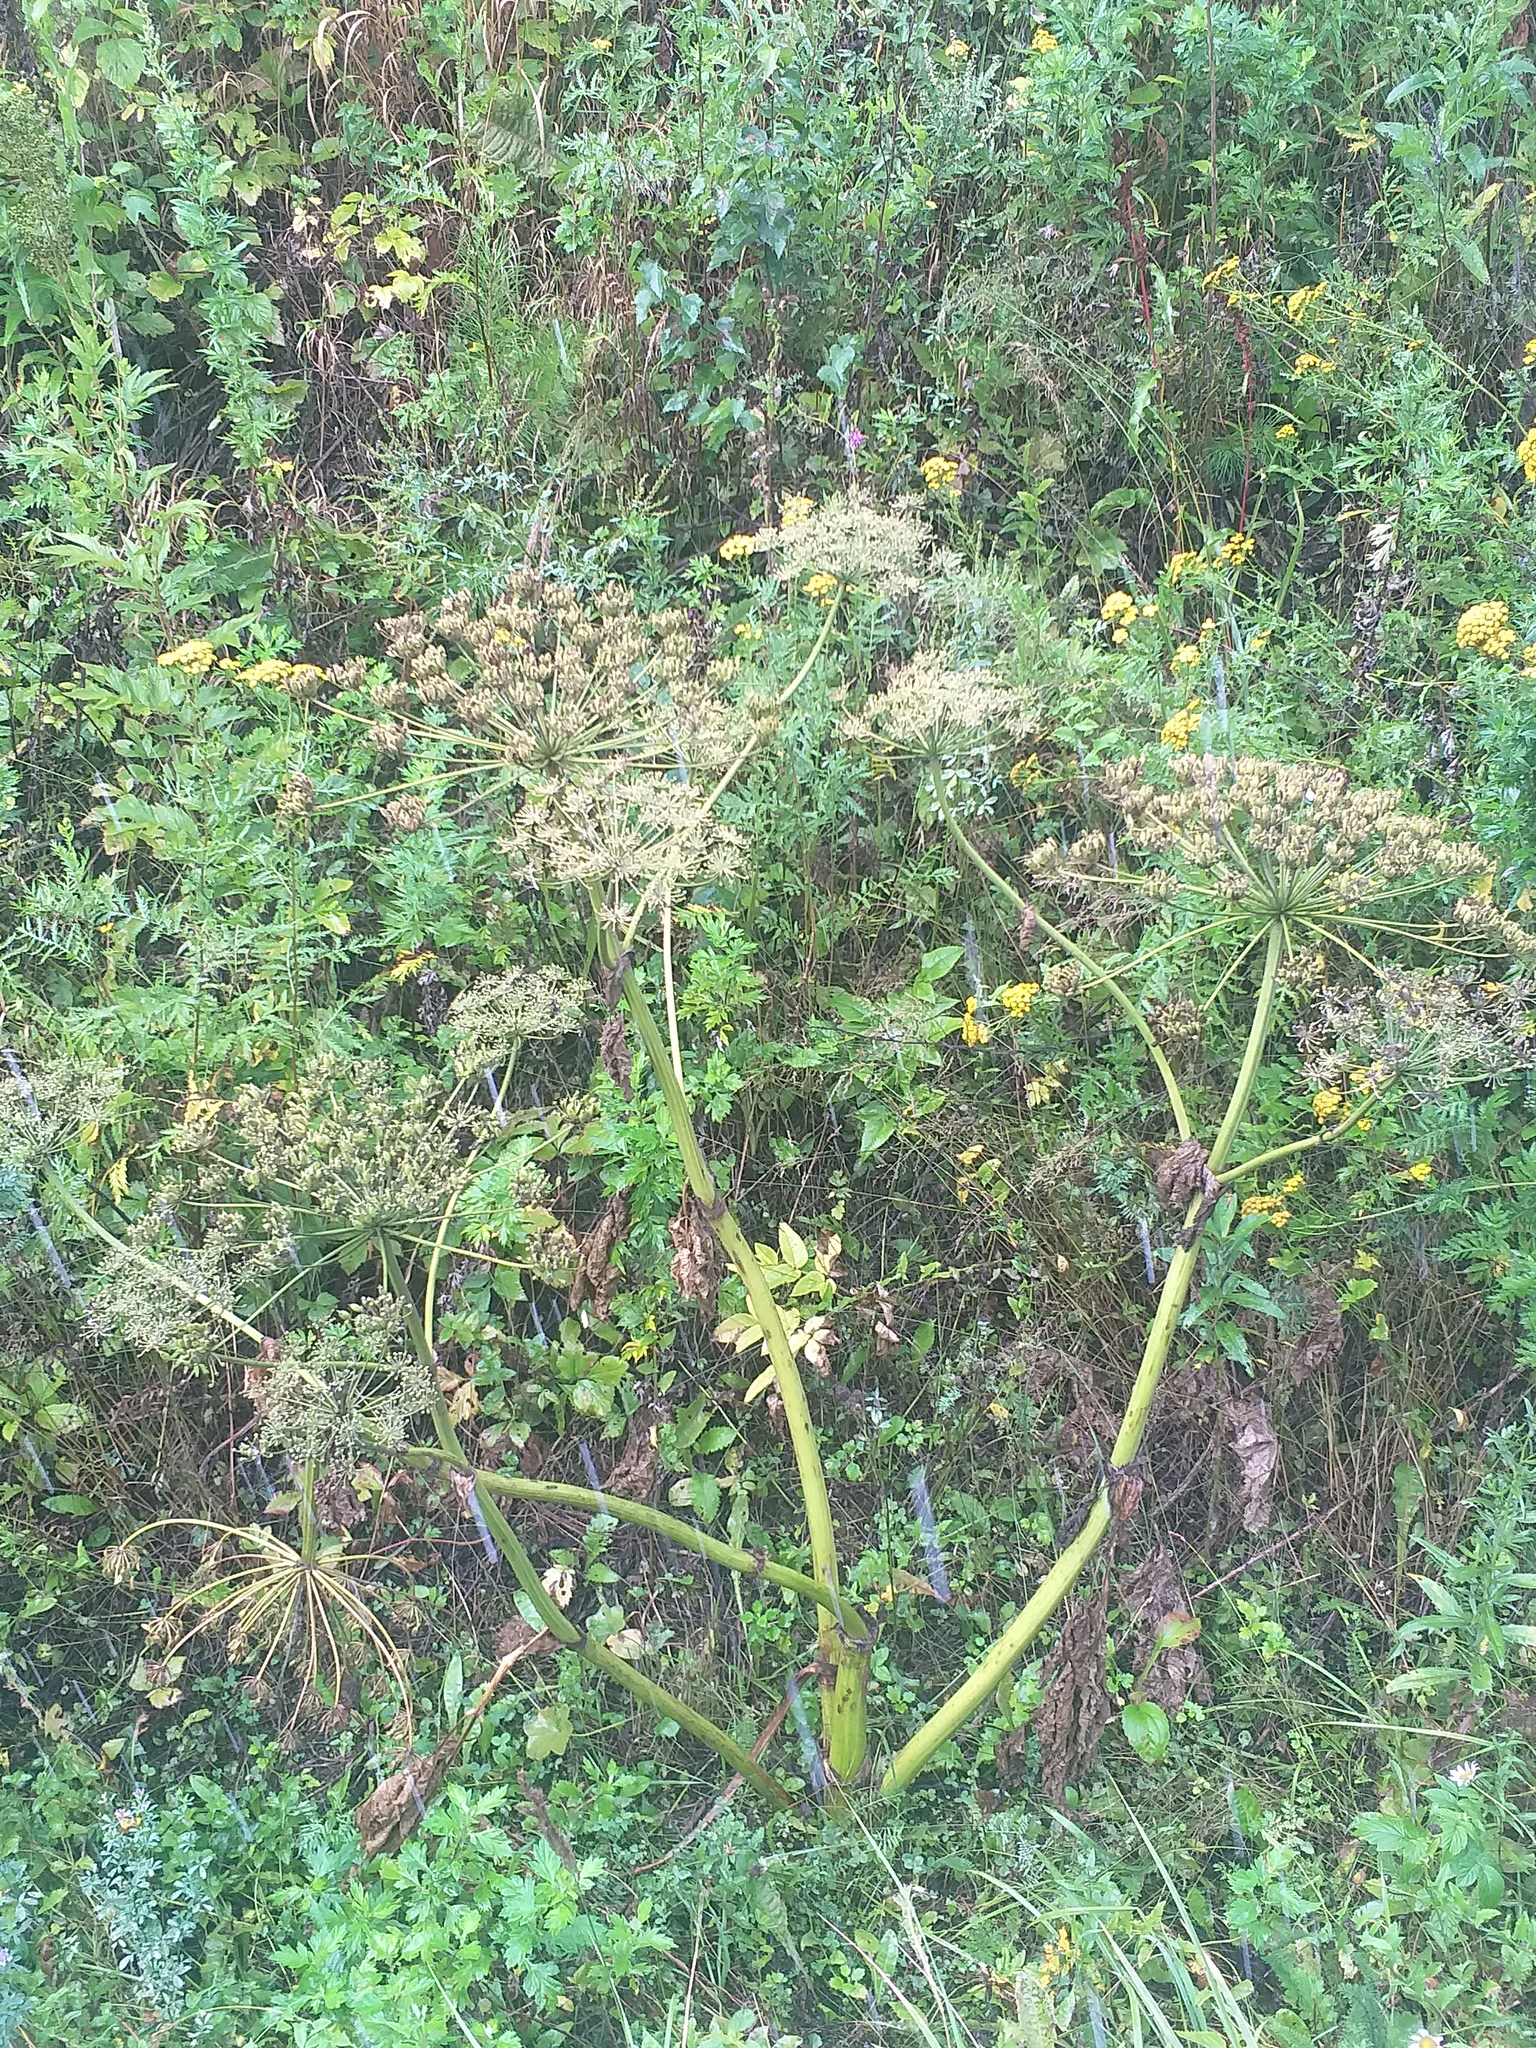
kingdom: Plantae
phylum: Tracheophyta
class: Magnoliopsida
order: Apiales
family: Apiaceae
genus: Heracleum
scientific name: Heracleum sosnowskyi
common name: Sosnowsky's hogweed
